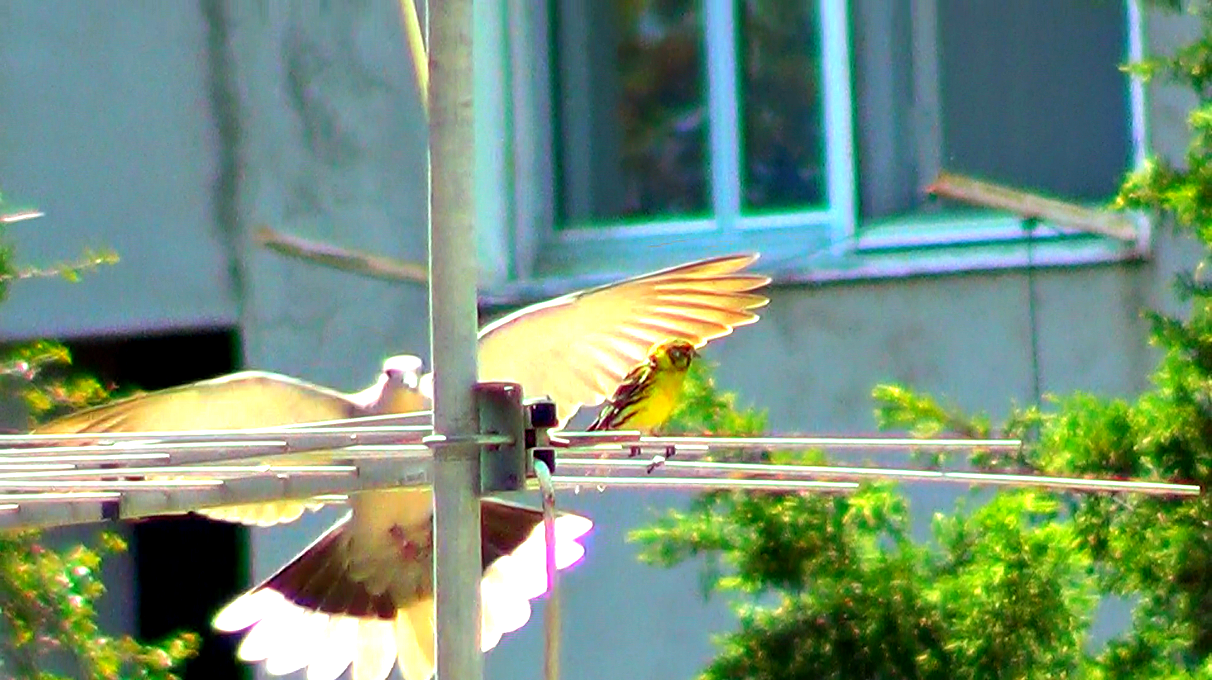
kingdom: Animalia
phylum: Chordata
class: Aves
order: Passeriformes
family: Fringillidae
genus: Serinus
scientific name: Serinus serinus
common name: European serin
